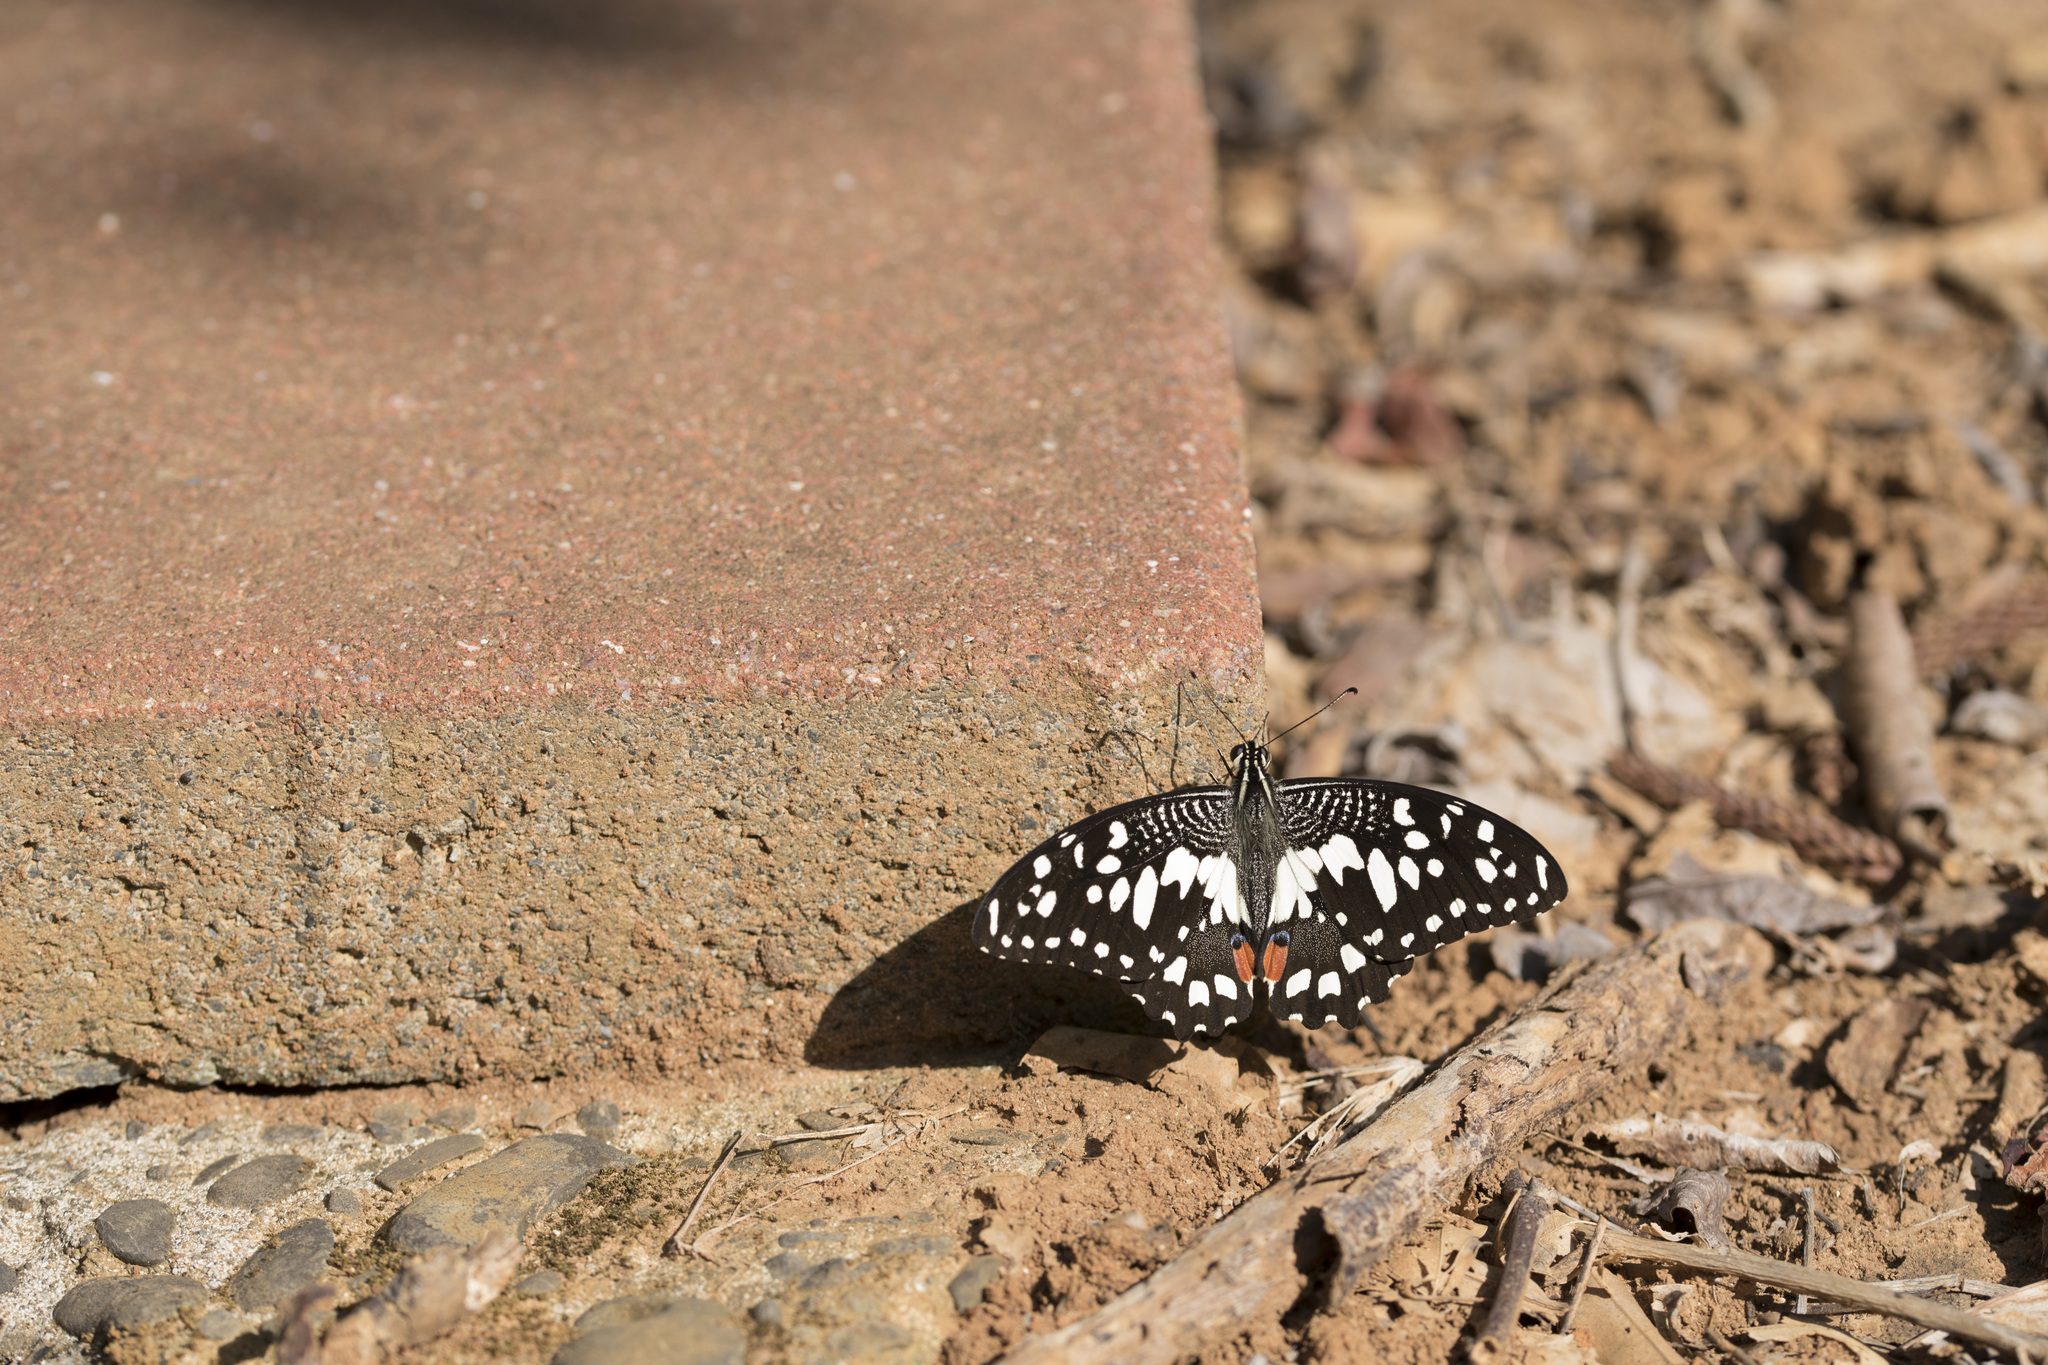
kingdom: Animalia
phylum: Arthropoda
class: Insecta
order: Lepidoptera
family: Papilionidae
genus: Papilio
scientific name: Papilio demoleus
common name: Lime butterfly
